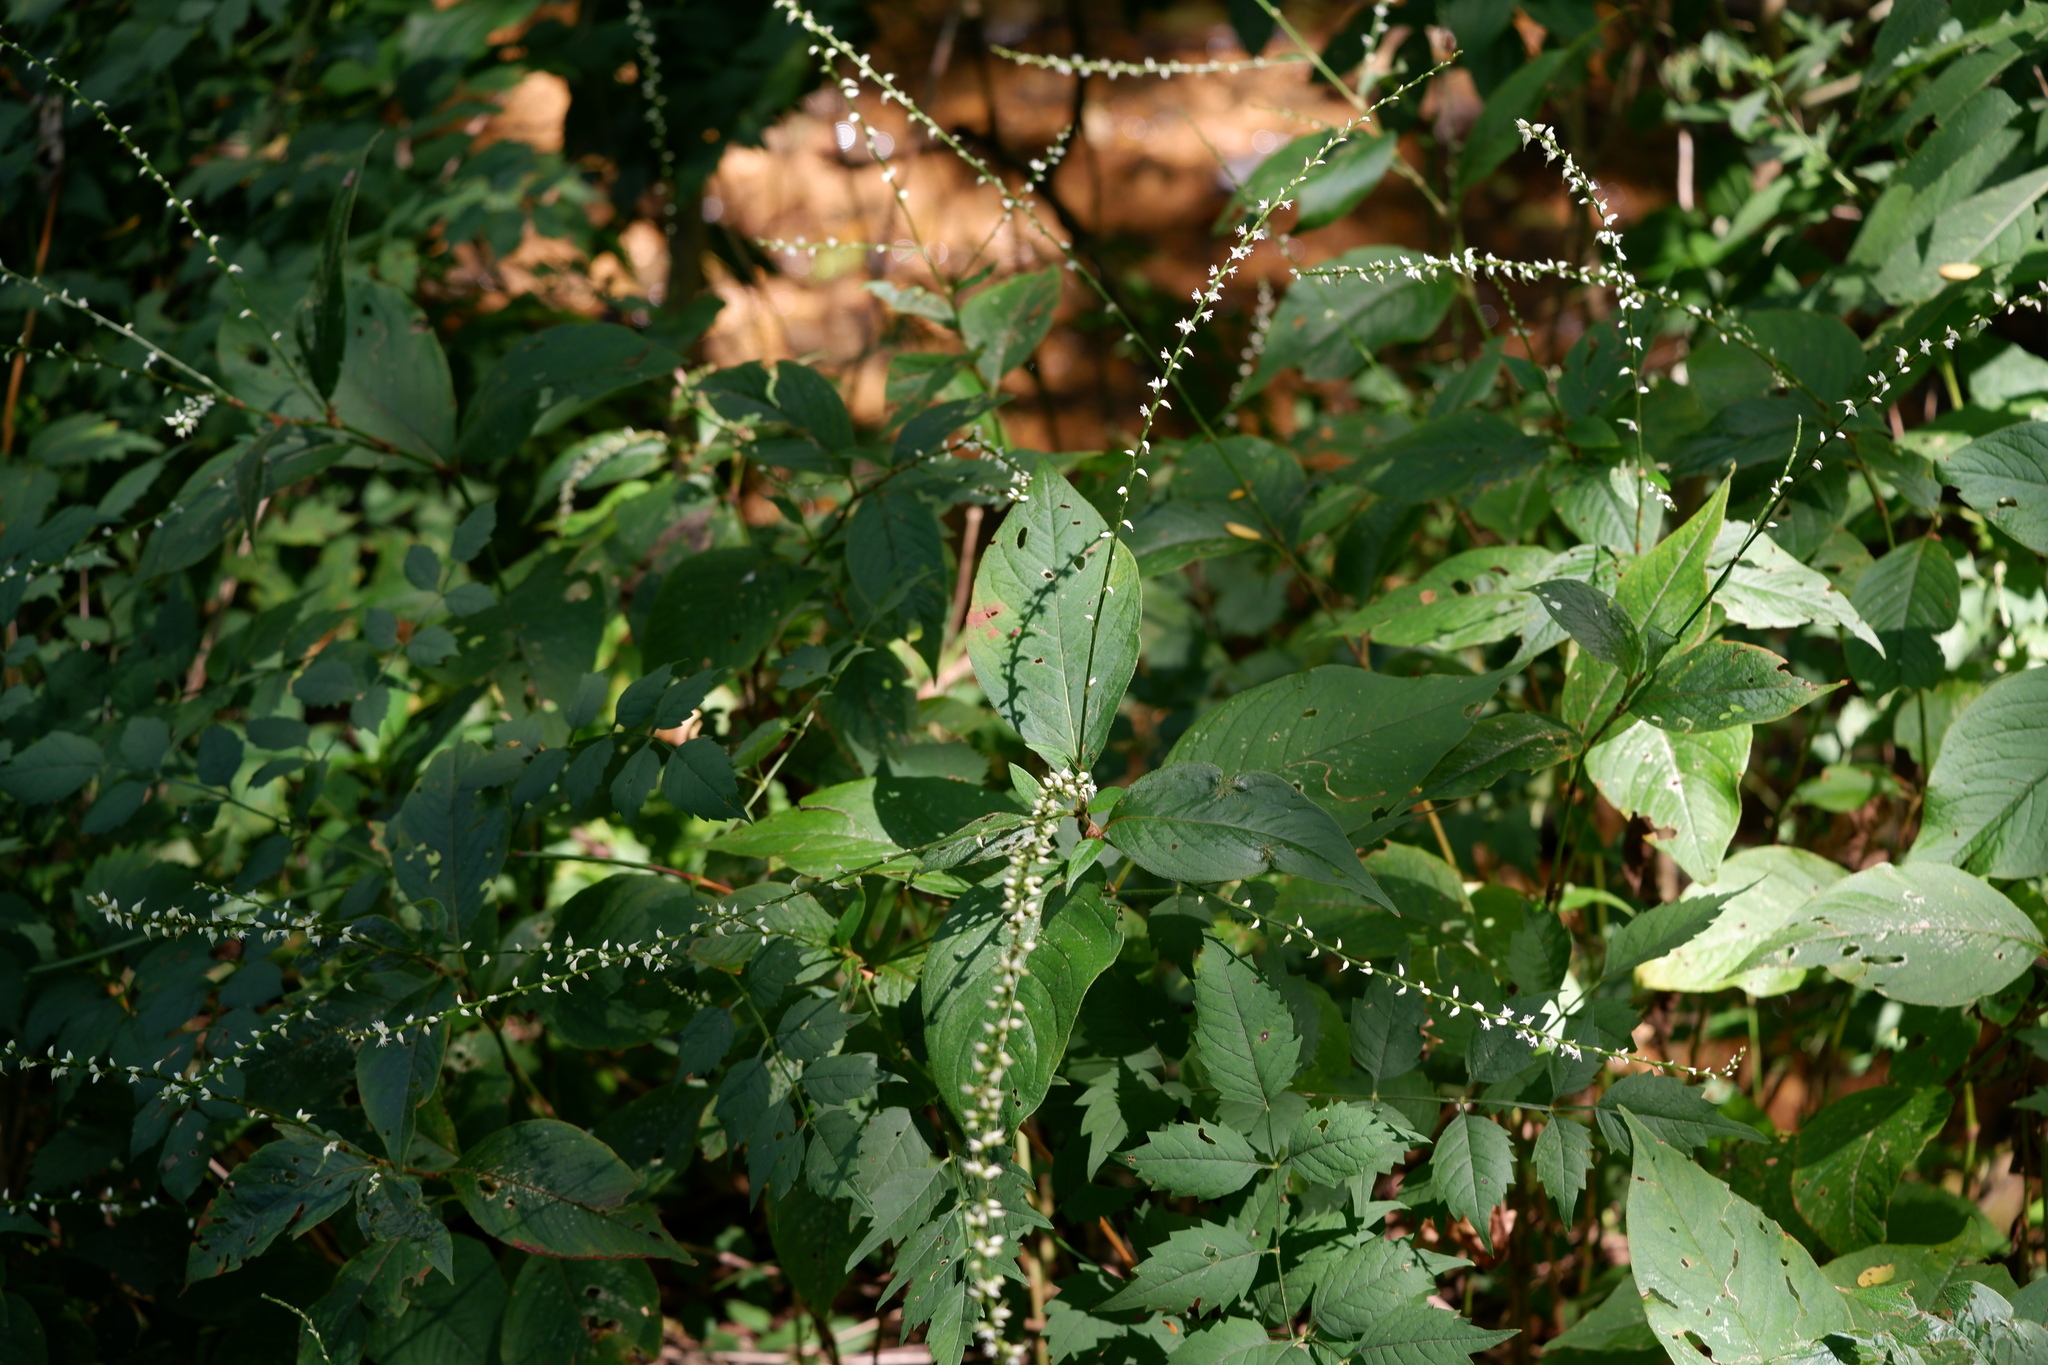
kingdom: Plantae
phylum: Tracheophyta
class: Magnoliopsida
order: Caryophyllales
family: Polygonaceae
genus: Persicaria
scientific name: Persicaria virginiana
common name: Jumpseed
